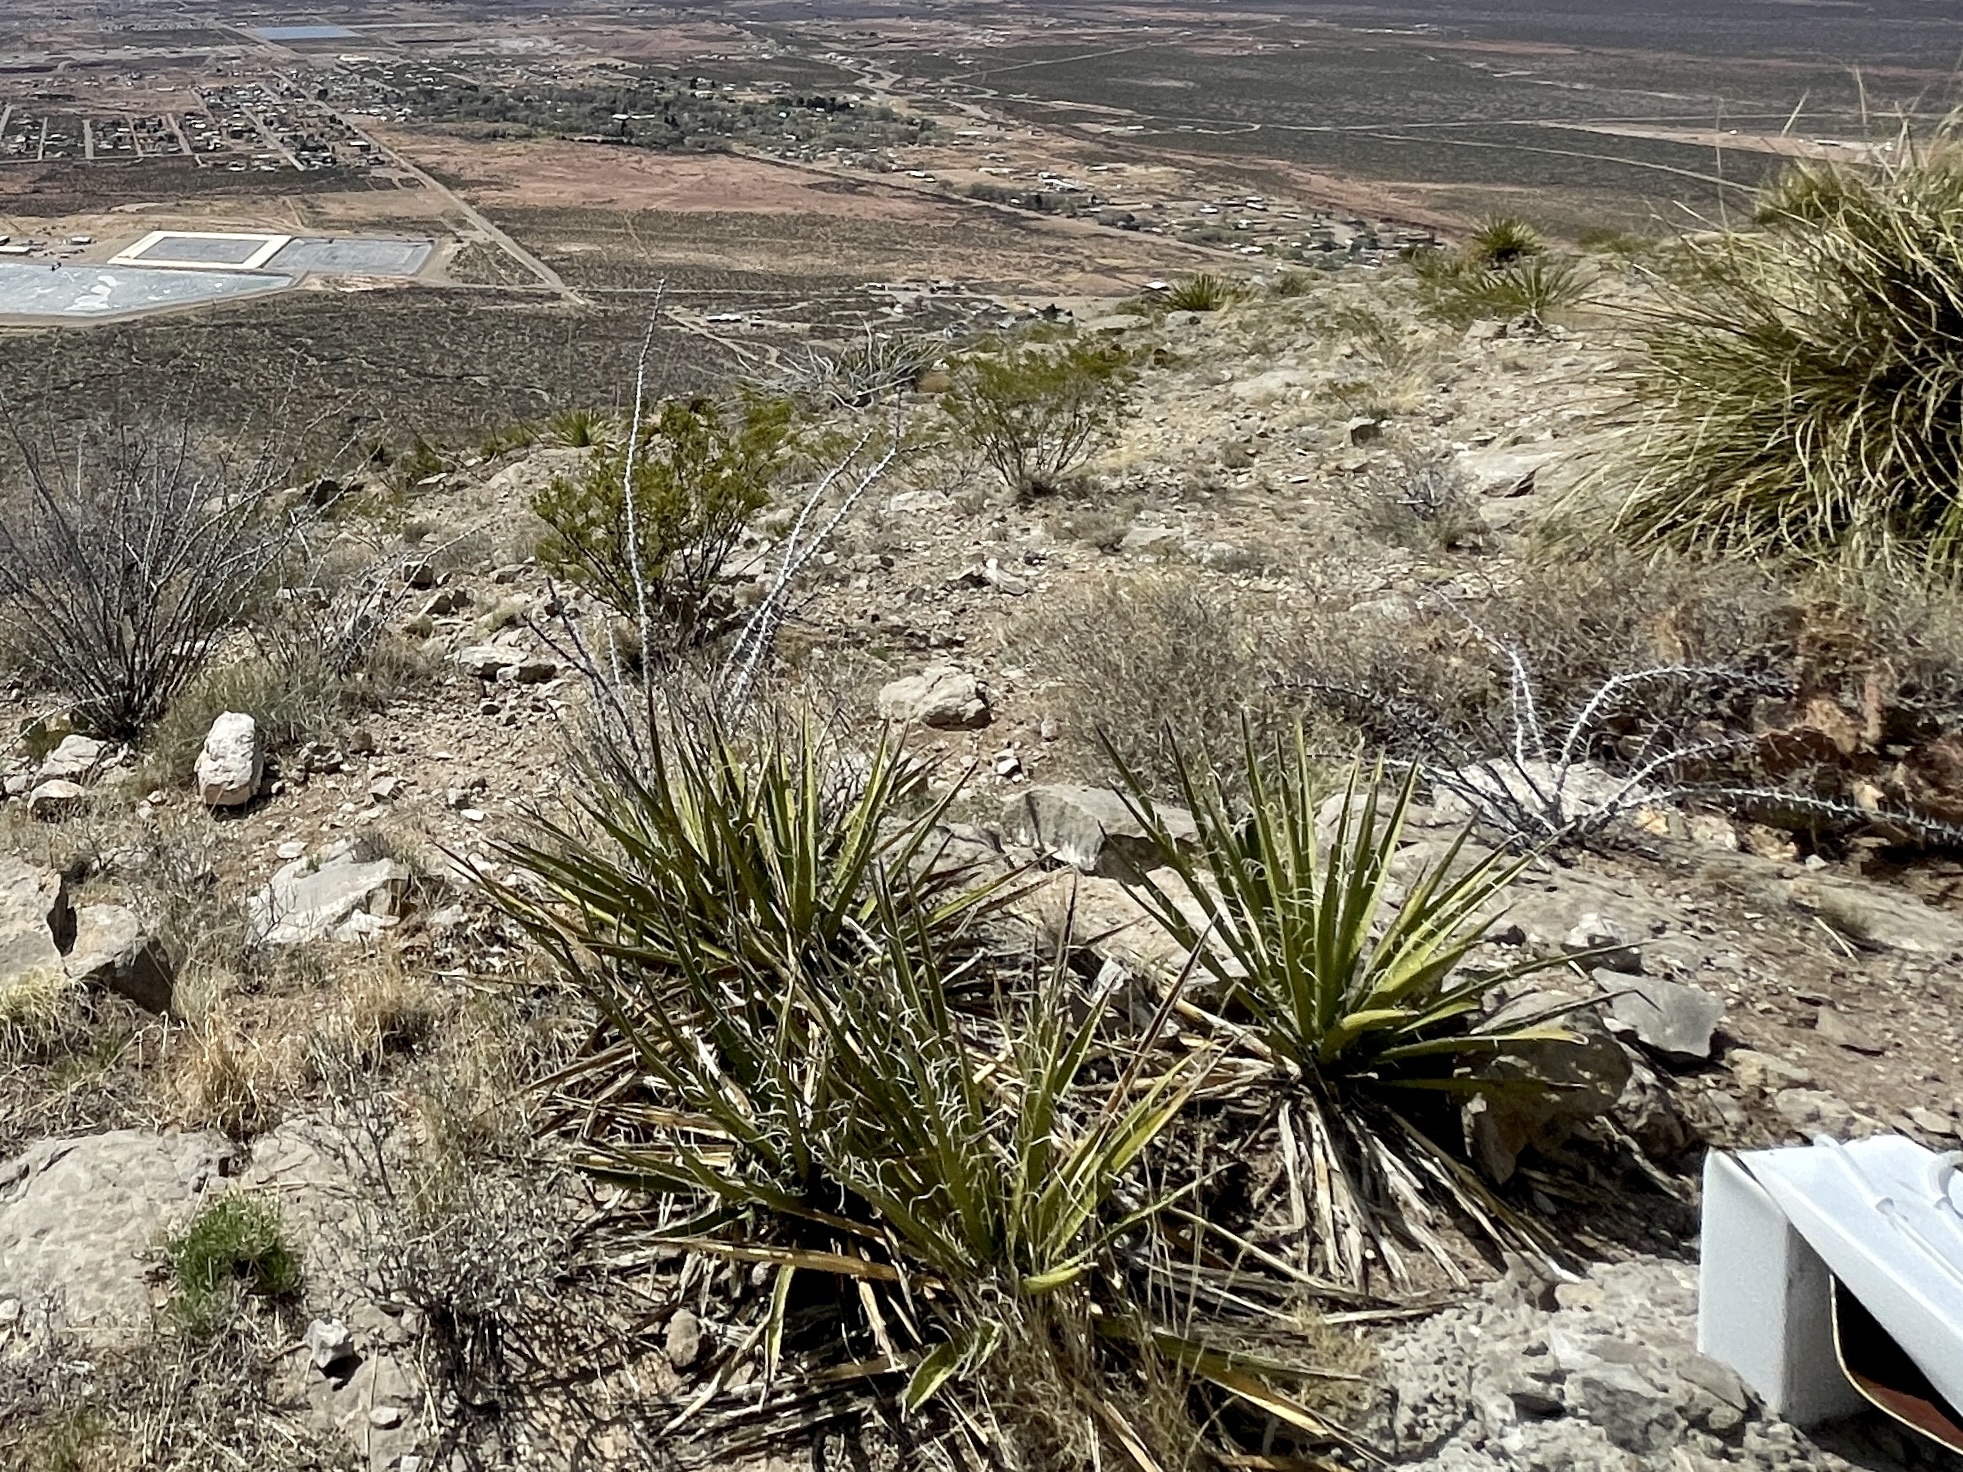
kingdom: Plantae
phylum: Tracheophyta
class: Liliopsida
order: Asparagales
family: Asparagaceae
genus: Yucca
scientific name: Yucca baccata
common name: Banana yucca
